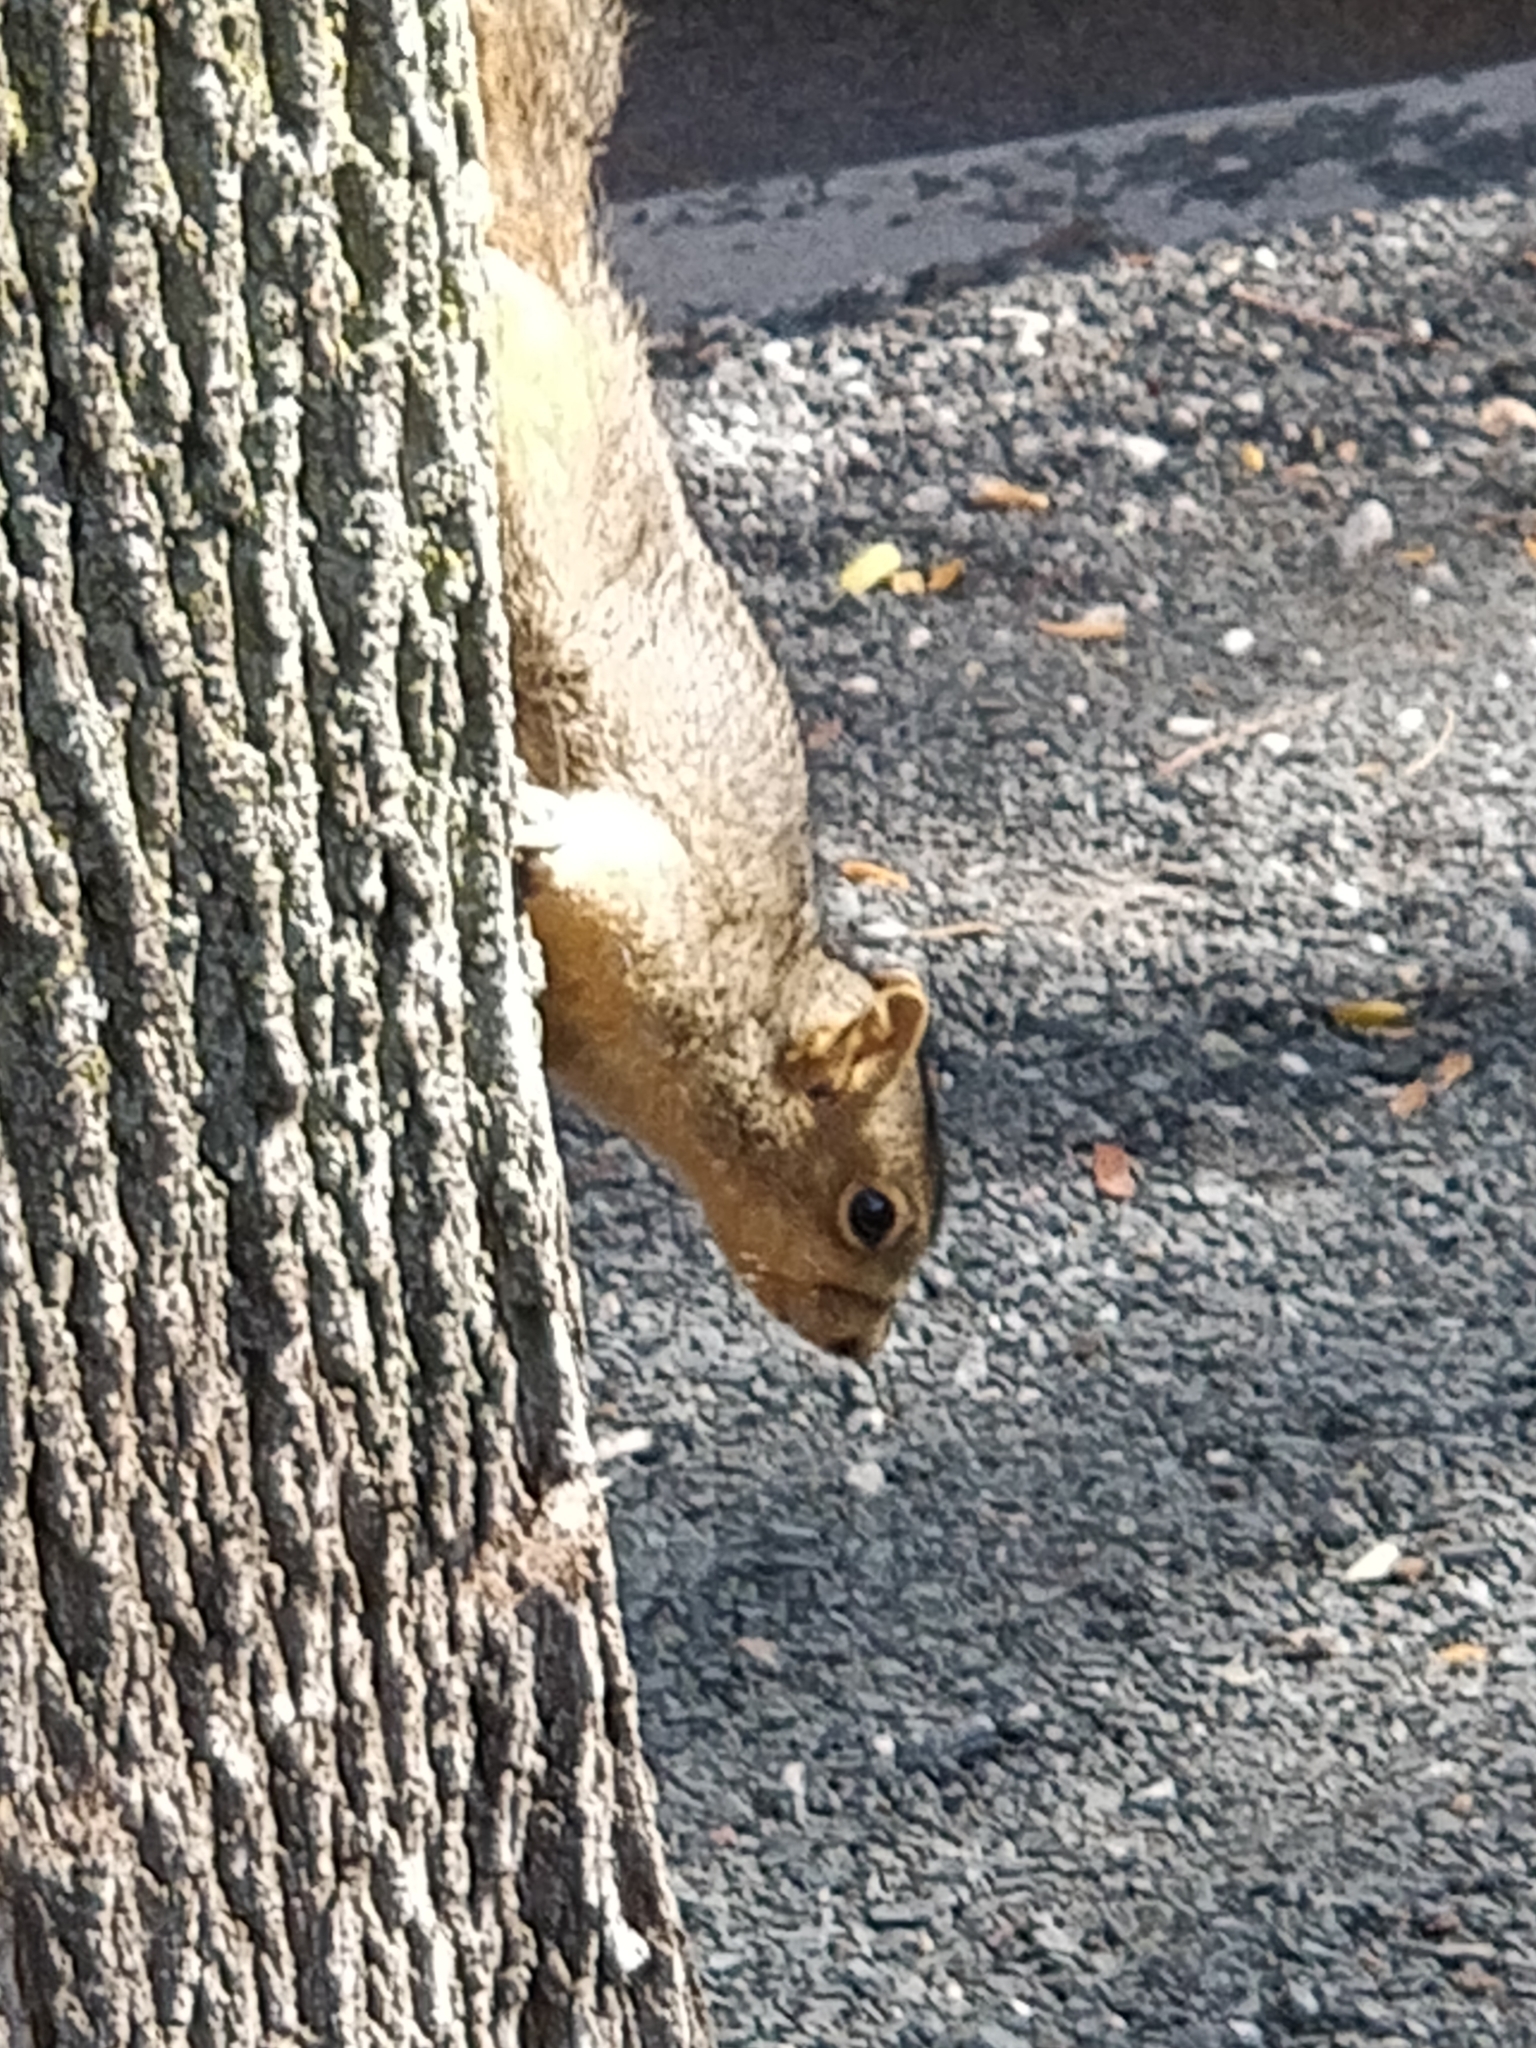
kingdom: Animalia
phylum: Chordata
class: Mammalia
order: Rodentia
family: Sciuridae
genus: Sciurus
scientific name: Sciurus niger
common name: Fox squirrel
